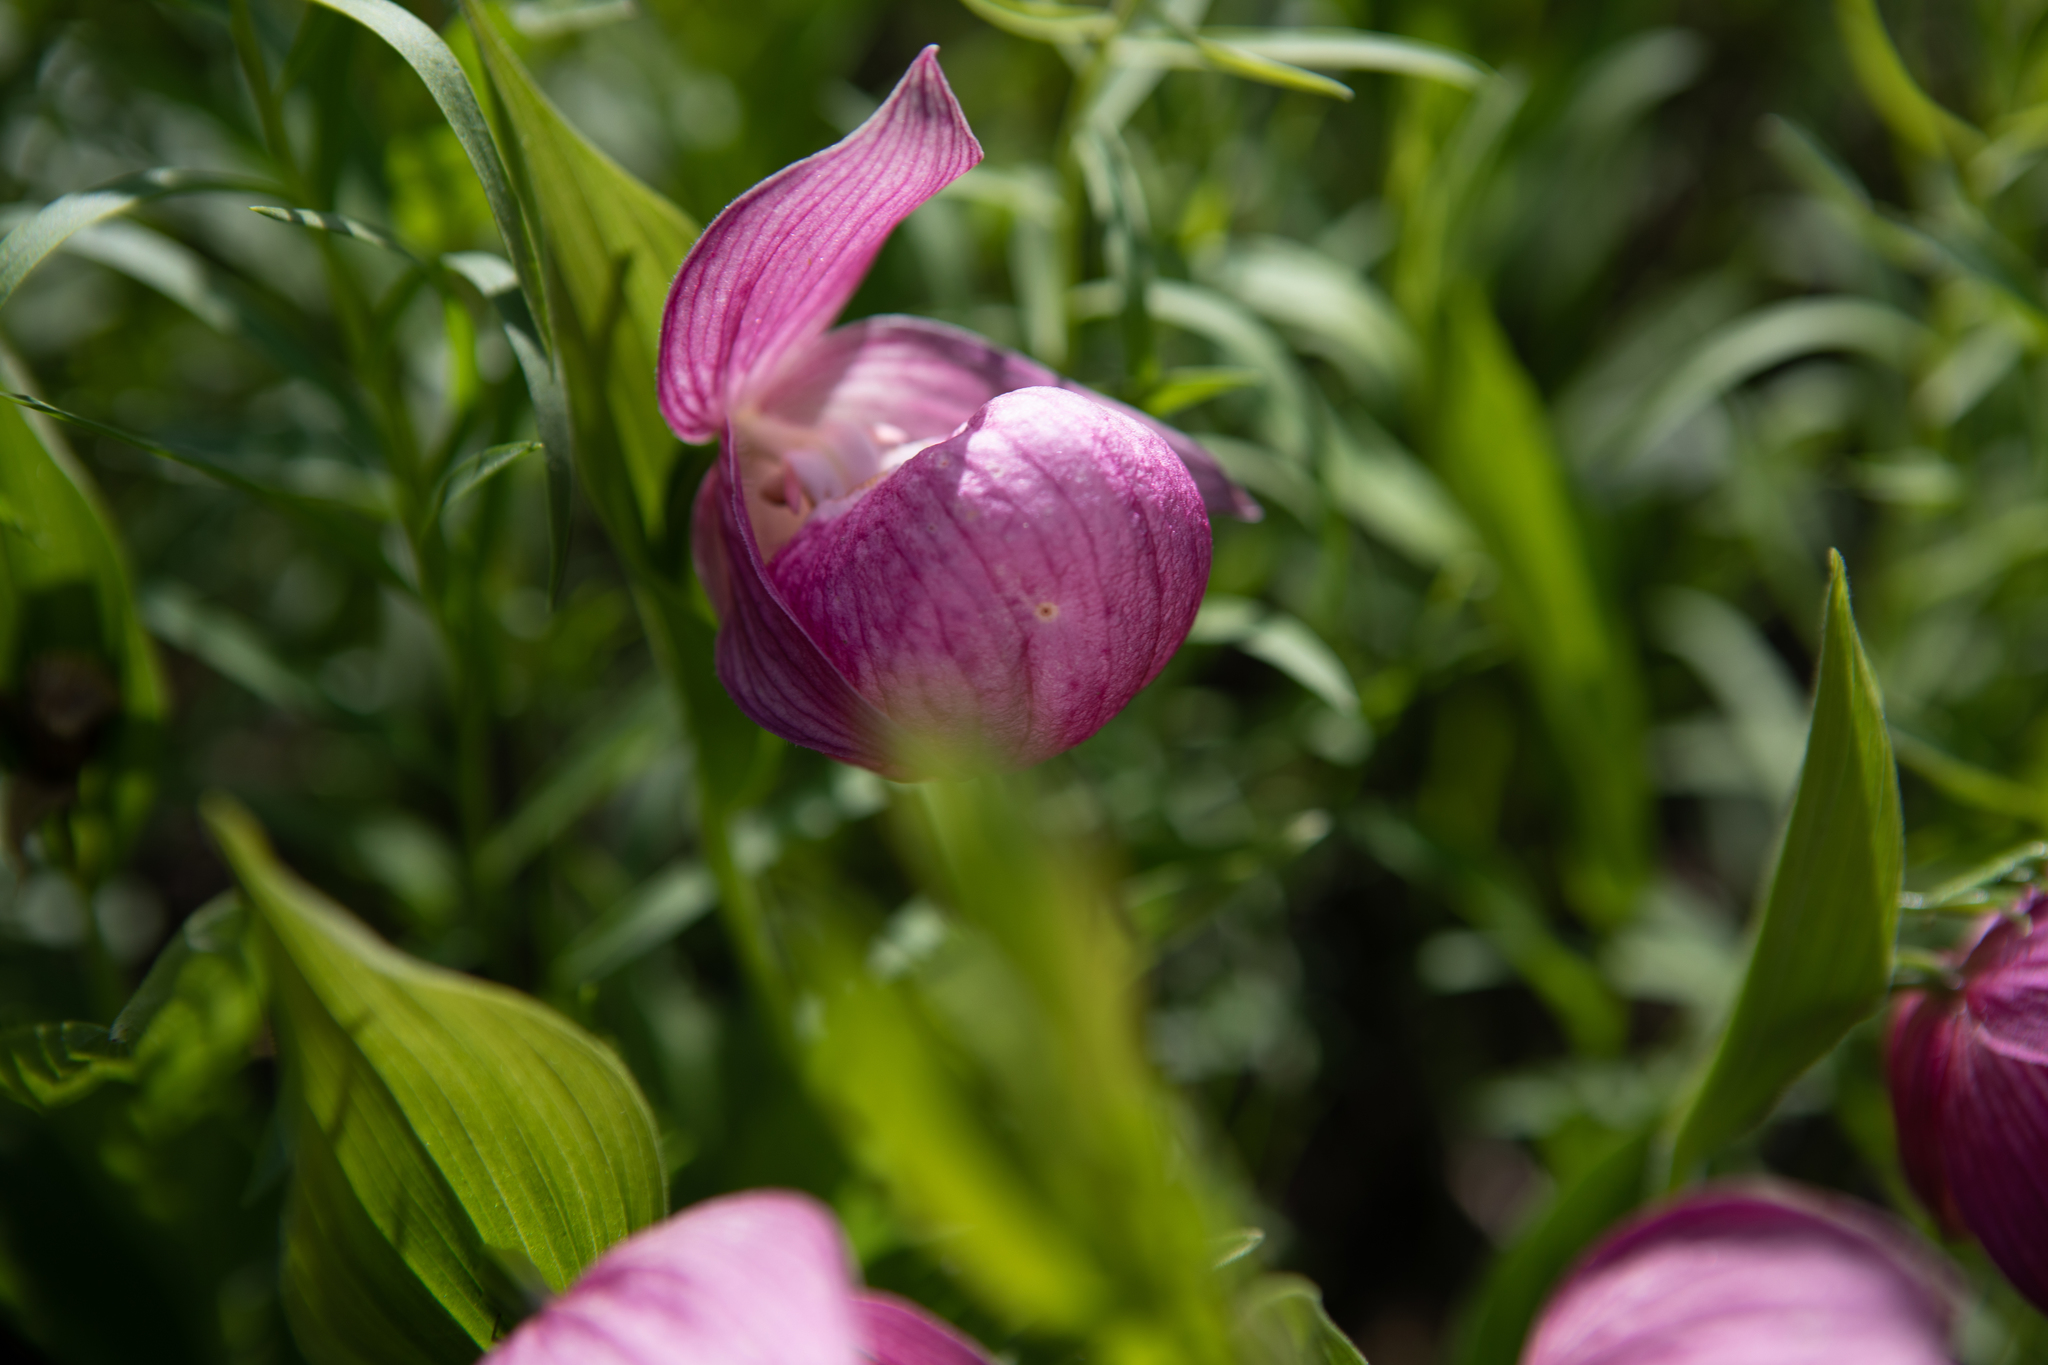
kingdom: Plantae
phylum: Tracheophyta
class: Liliopsida
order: Asparagales
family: Orchidaceae
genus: Cypripedium
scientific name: Cypripedium macranthos
